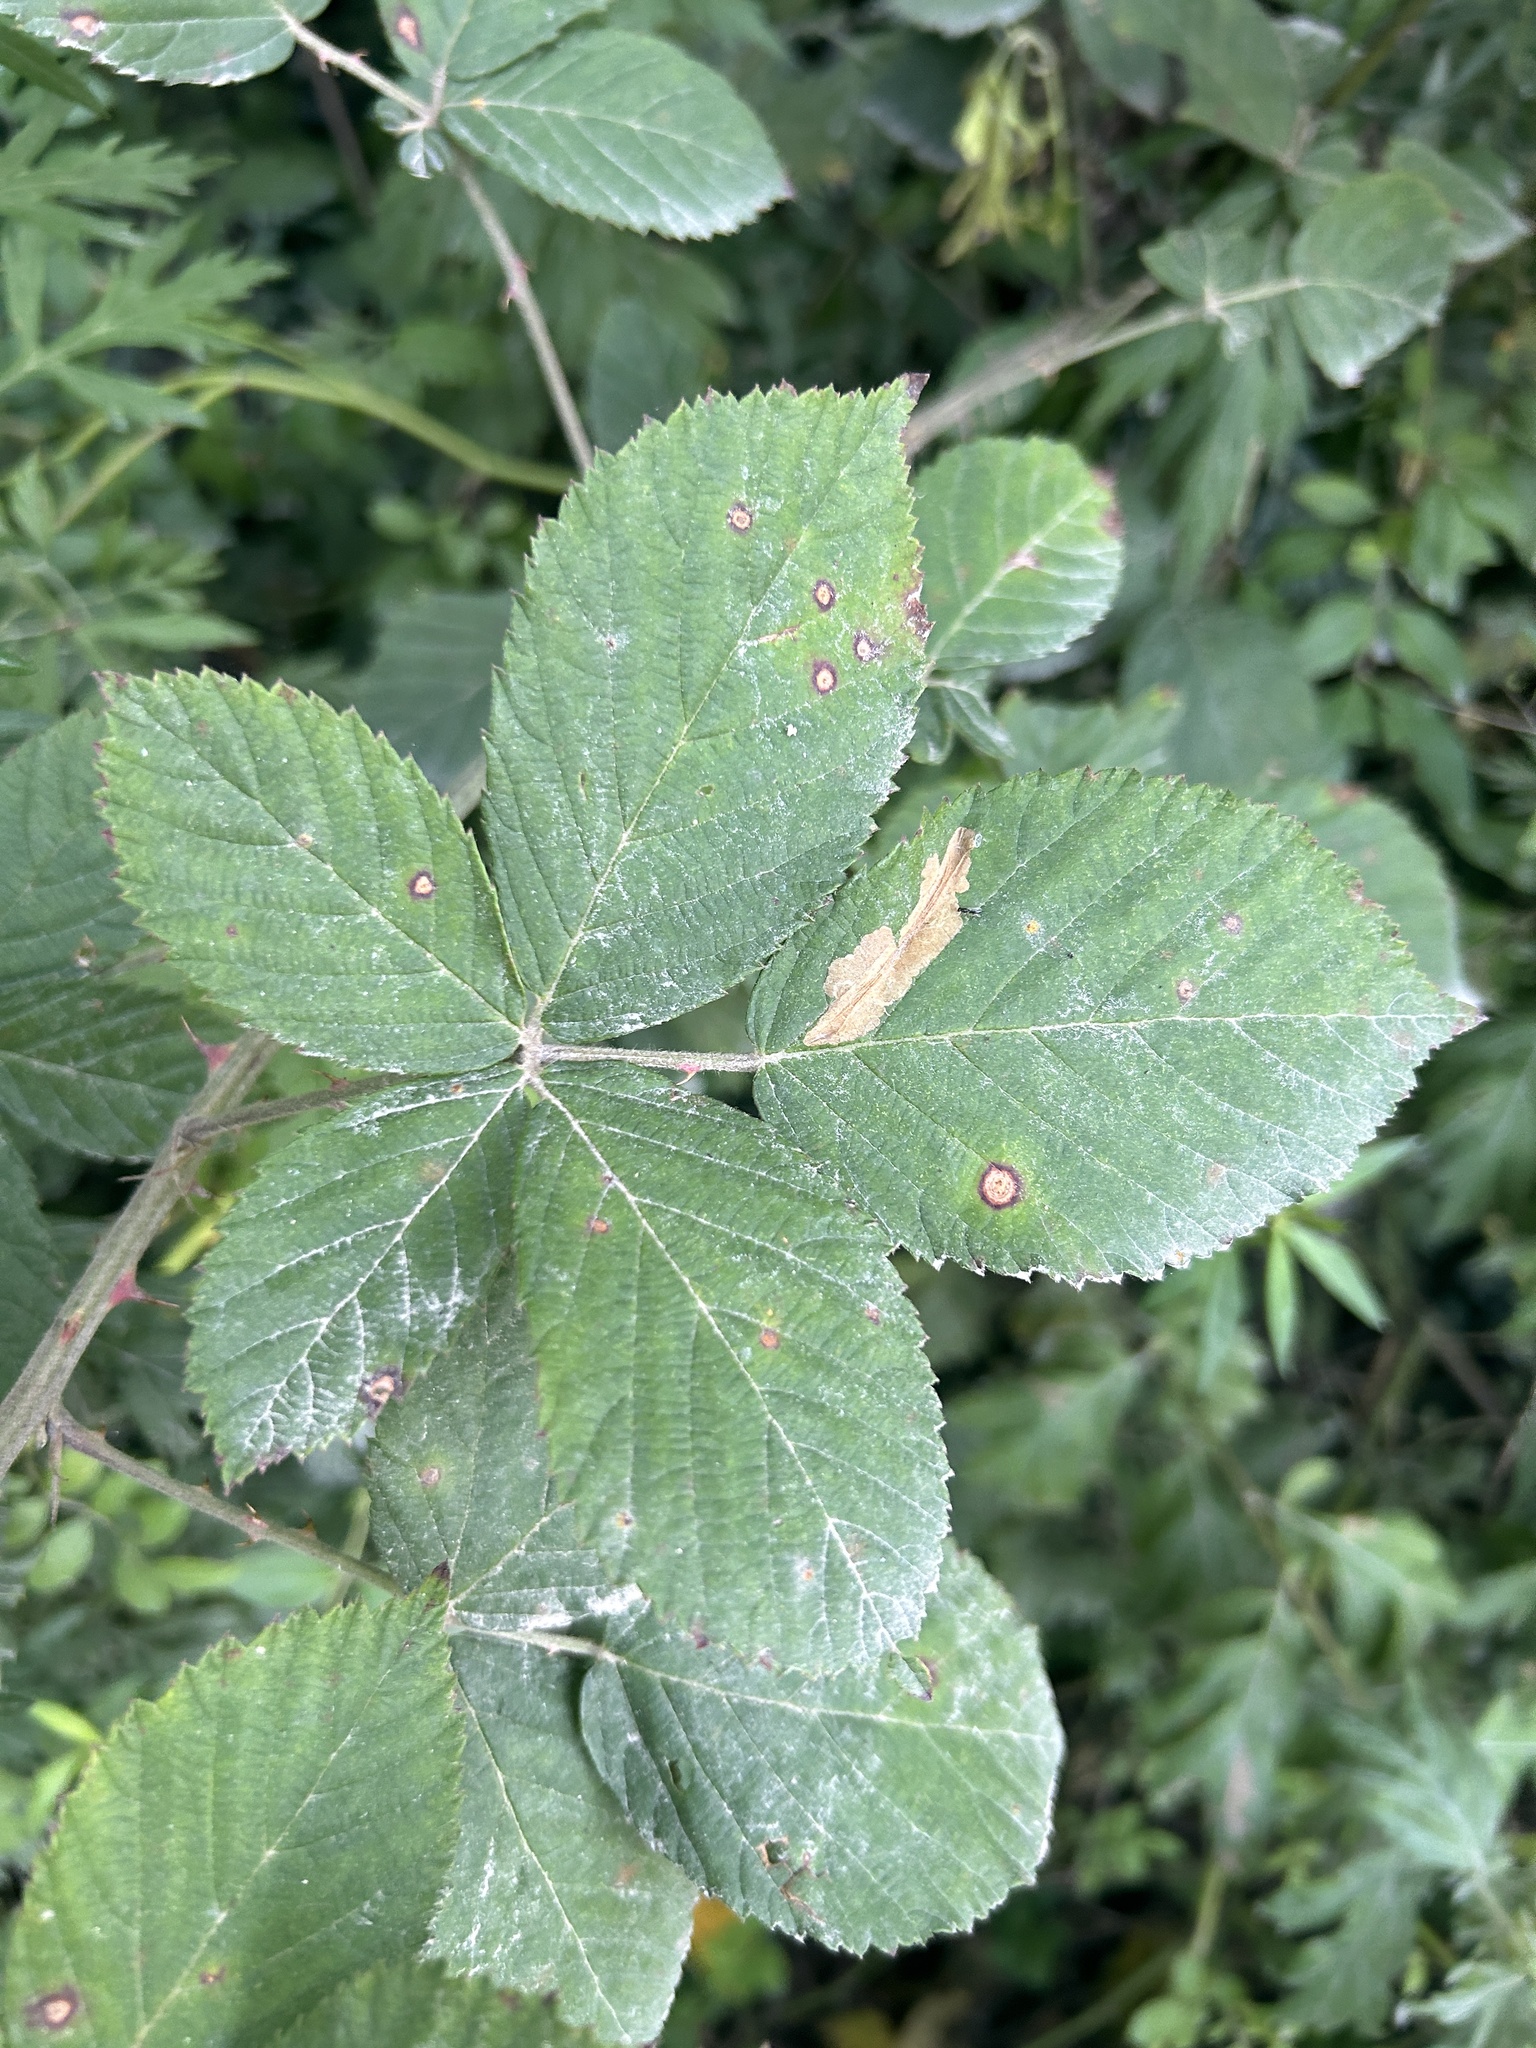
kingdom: Animalia
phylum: Arthropoda
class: Insecta
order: Lepidoptera
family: Tischeriidae
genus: Coptotriche
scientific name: Coptotriche aenea
